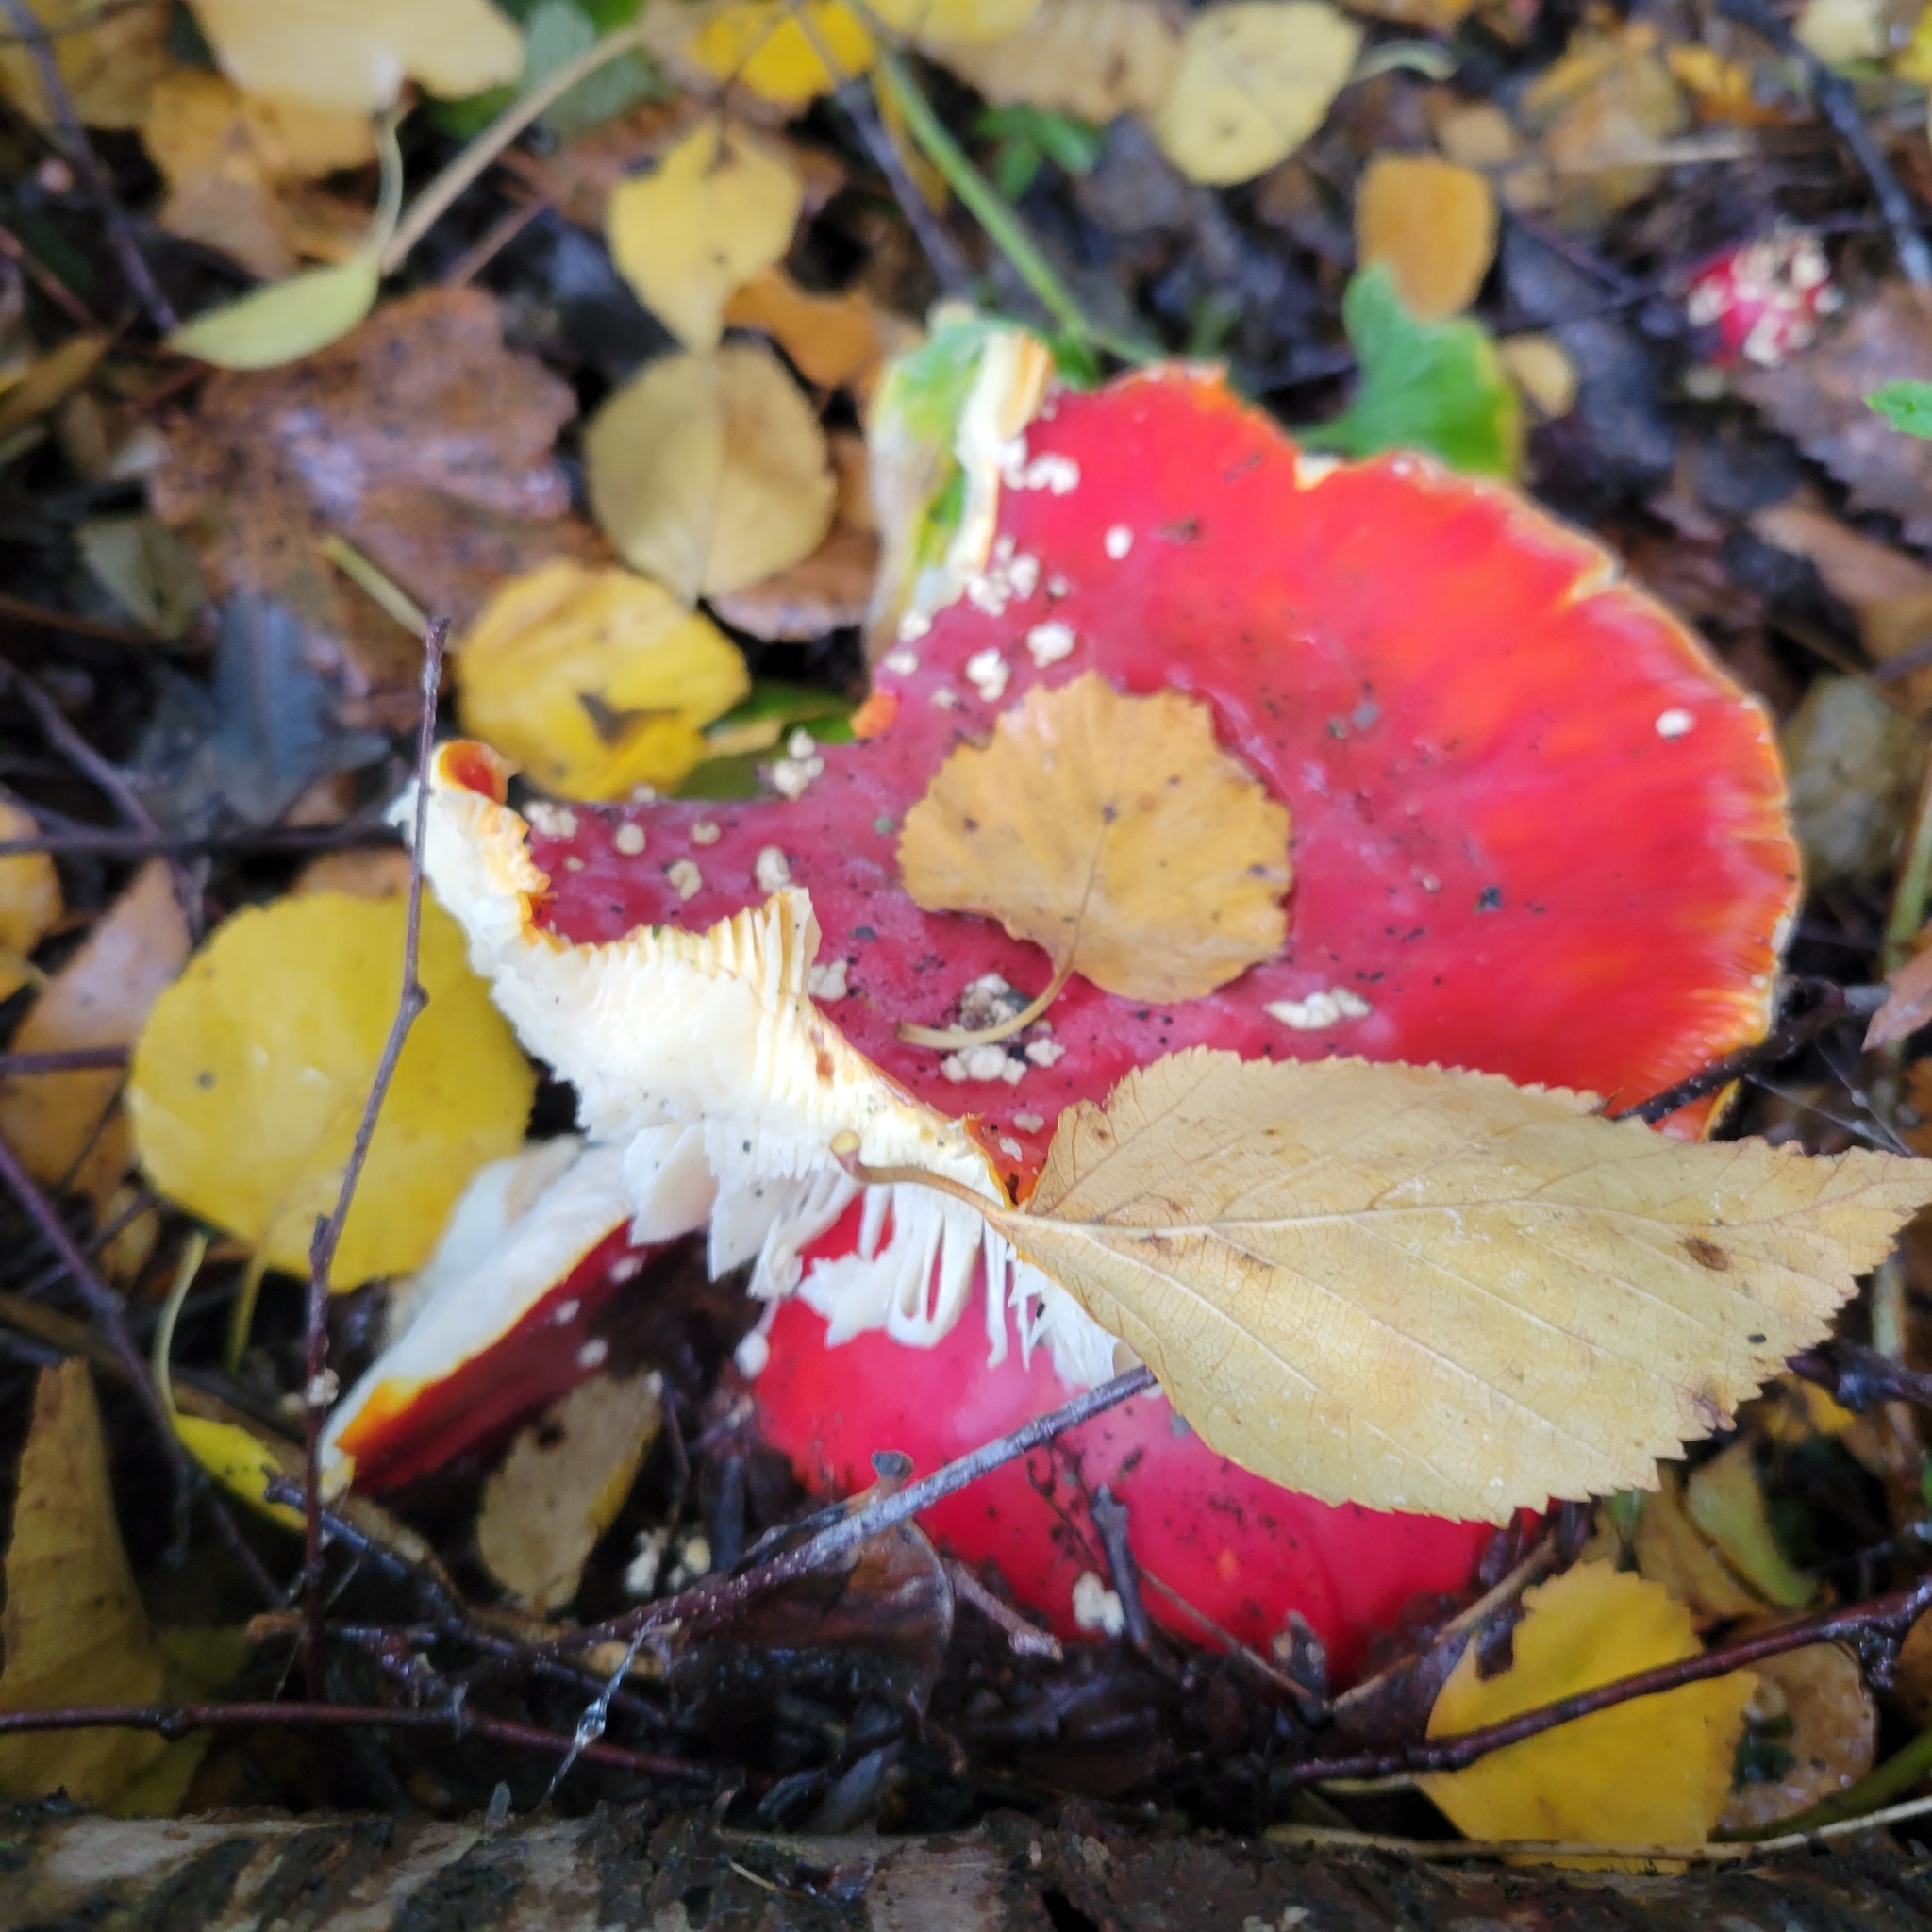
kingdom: Fungi
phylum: Basidiomycota
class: Agaricomycetes
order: Agaricales
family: Amanitaceae
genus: Amanita
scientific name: Amanita muscaria
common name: Fly agaric
